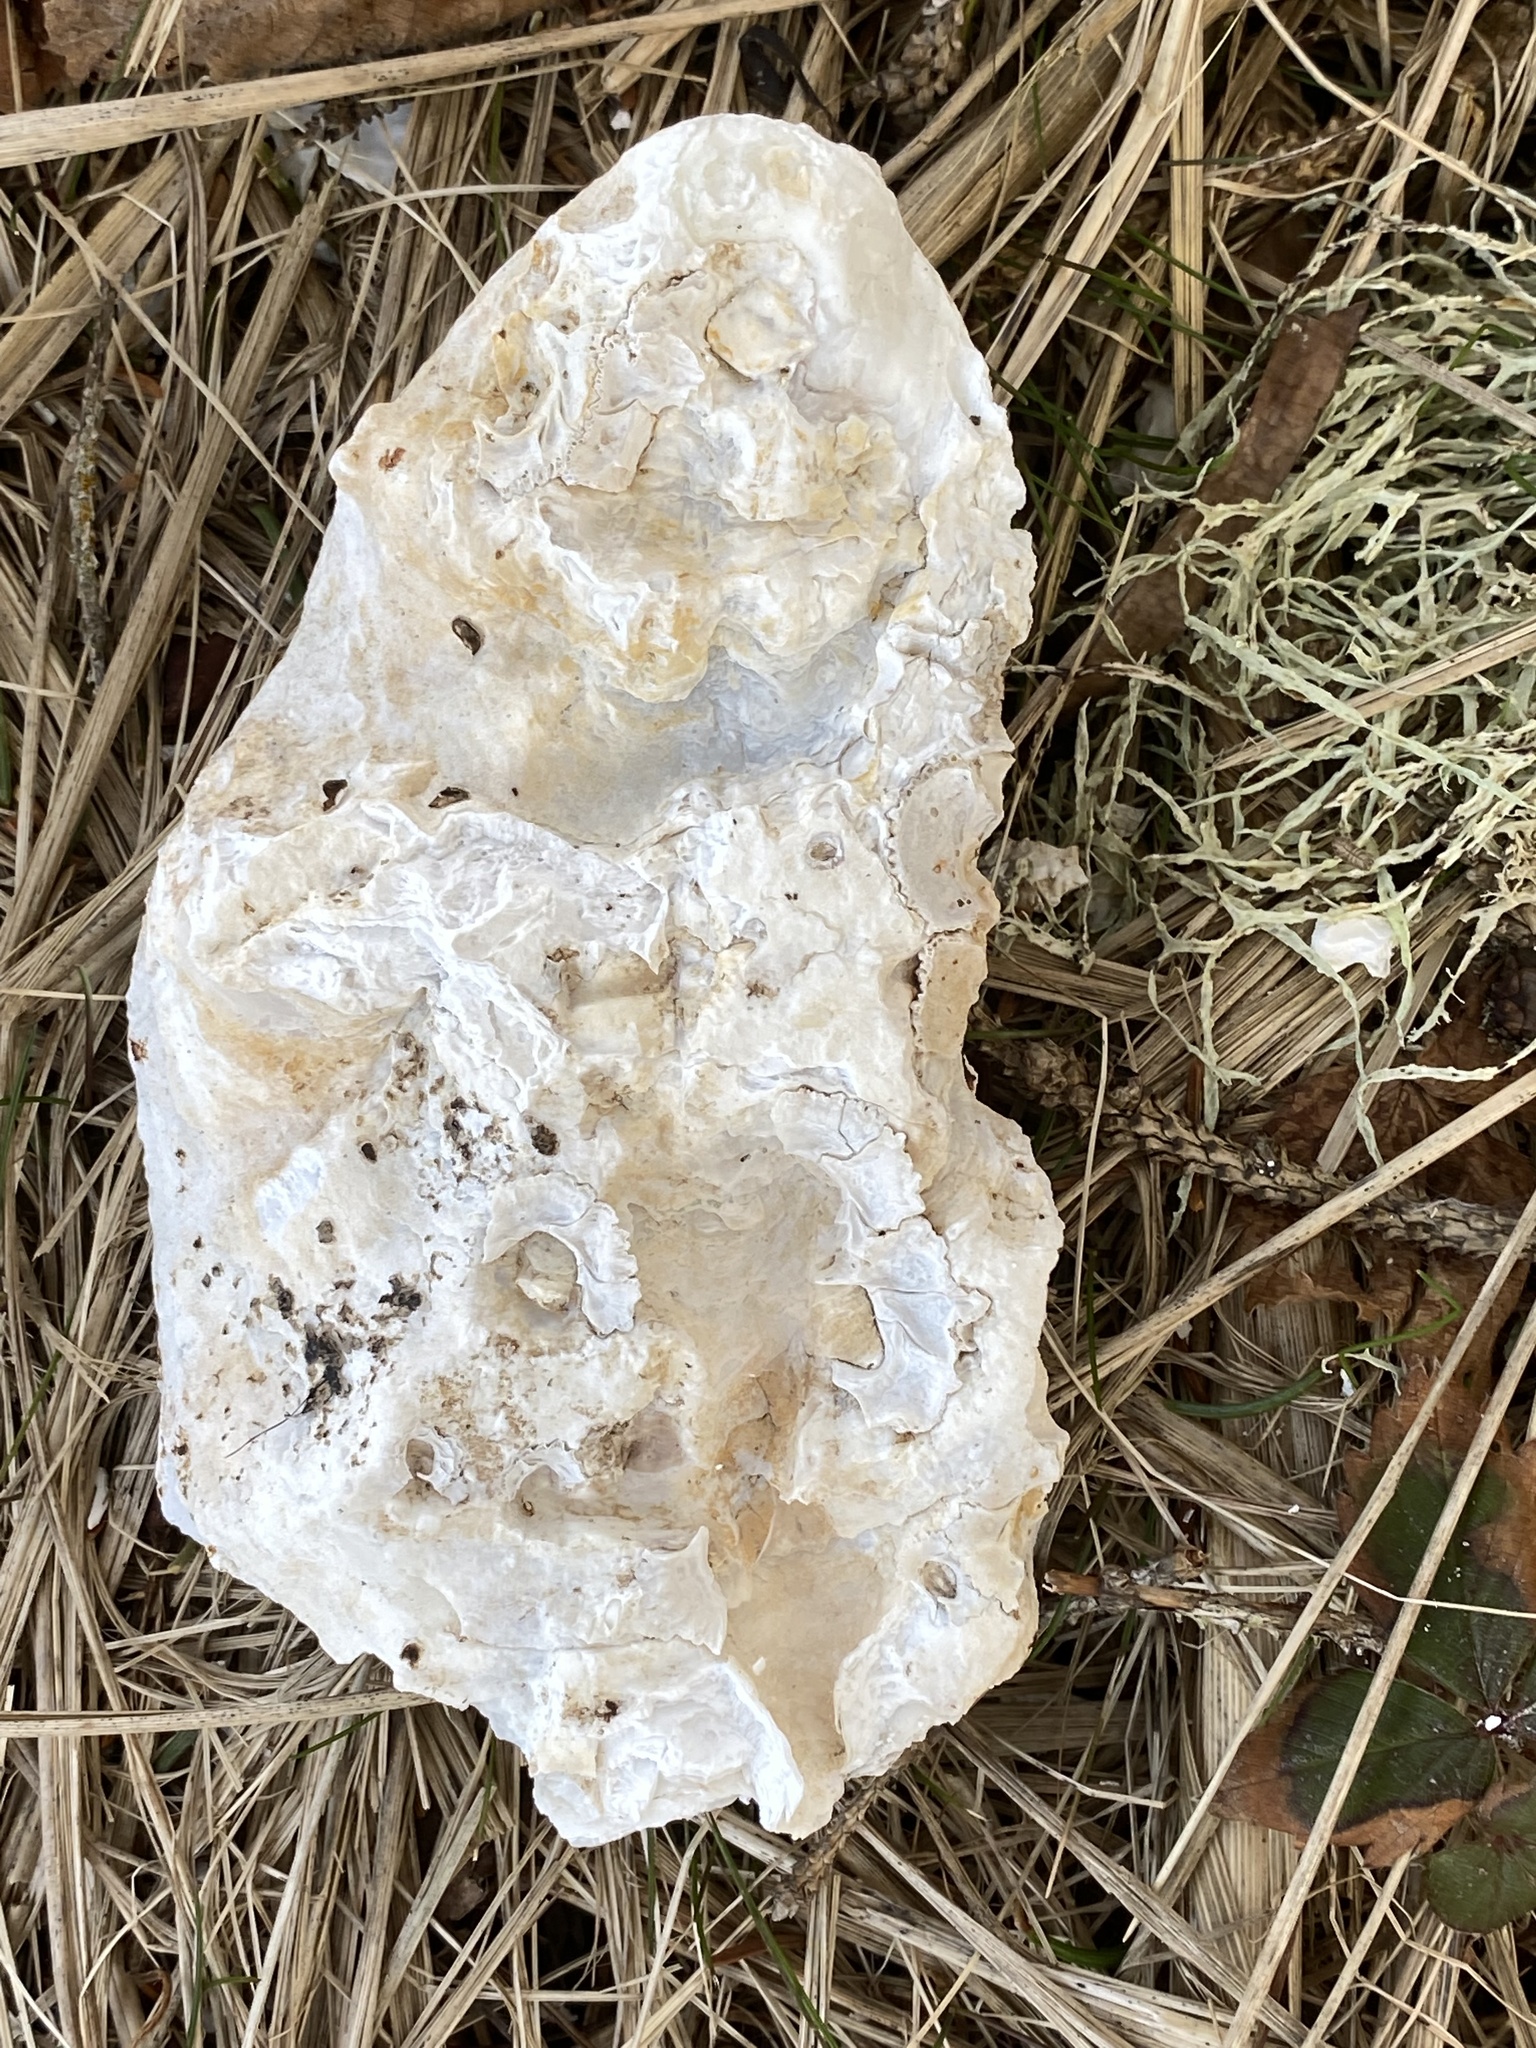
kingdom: Animalia
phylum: Mollusca
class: Bivalvia
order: Ostreida
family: Ostreidae
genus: Crassostrea
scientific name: Crassostrea virginica
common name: American oyster
